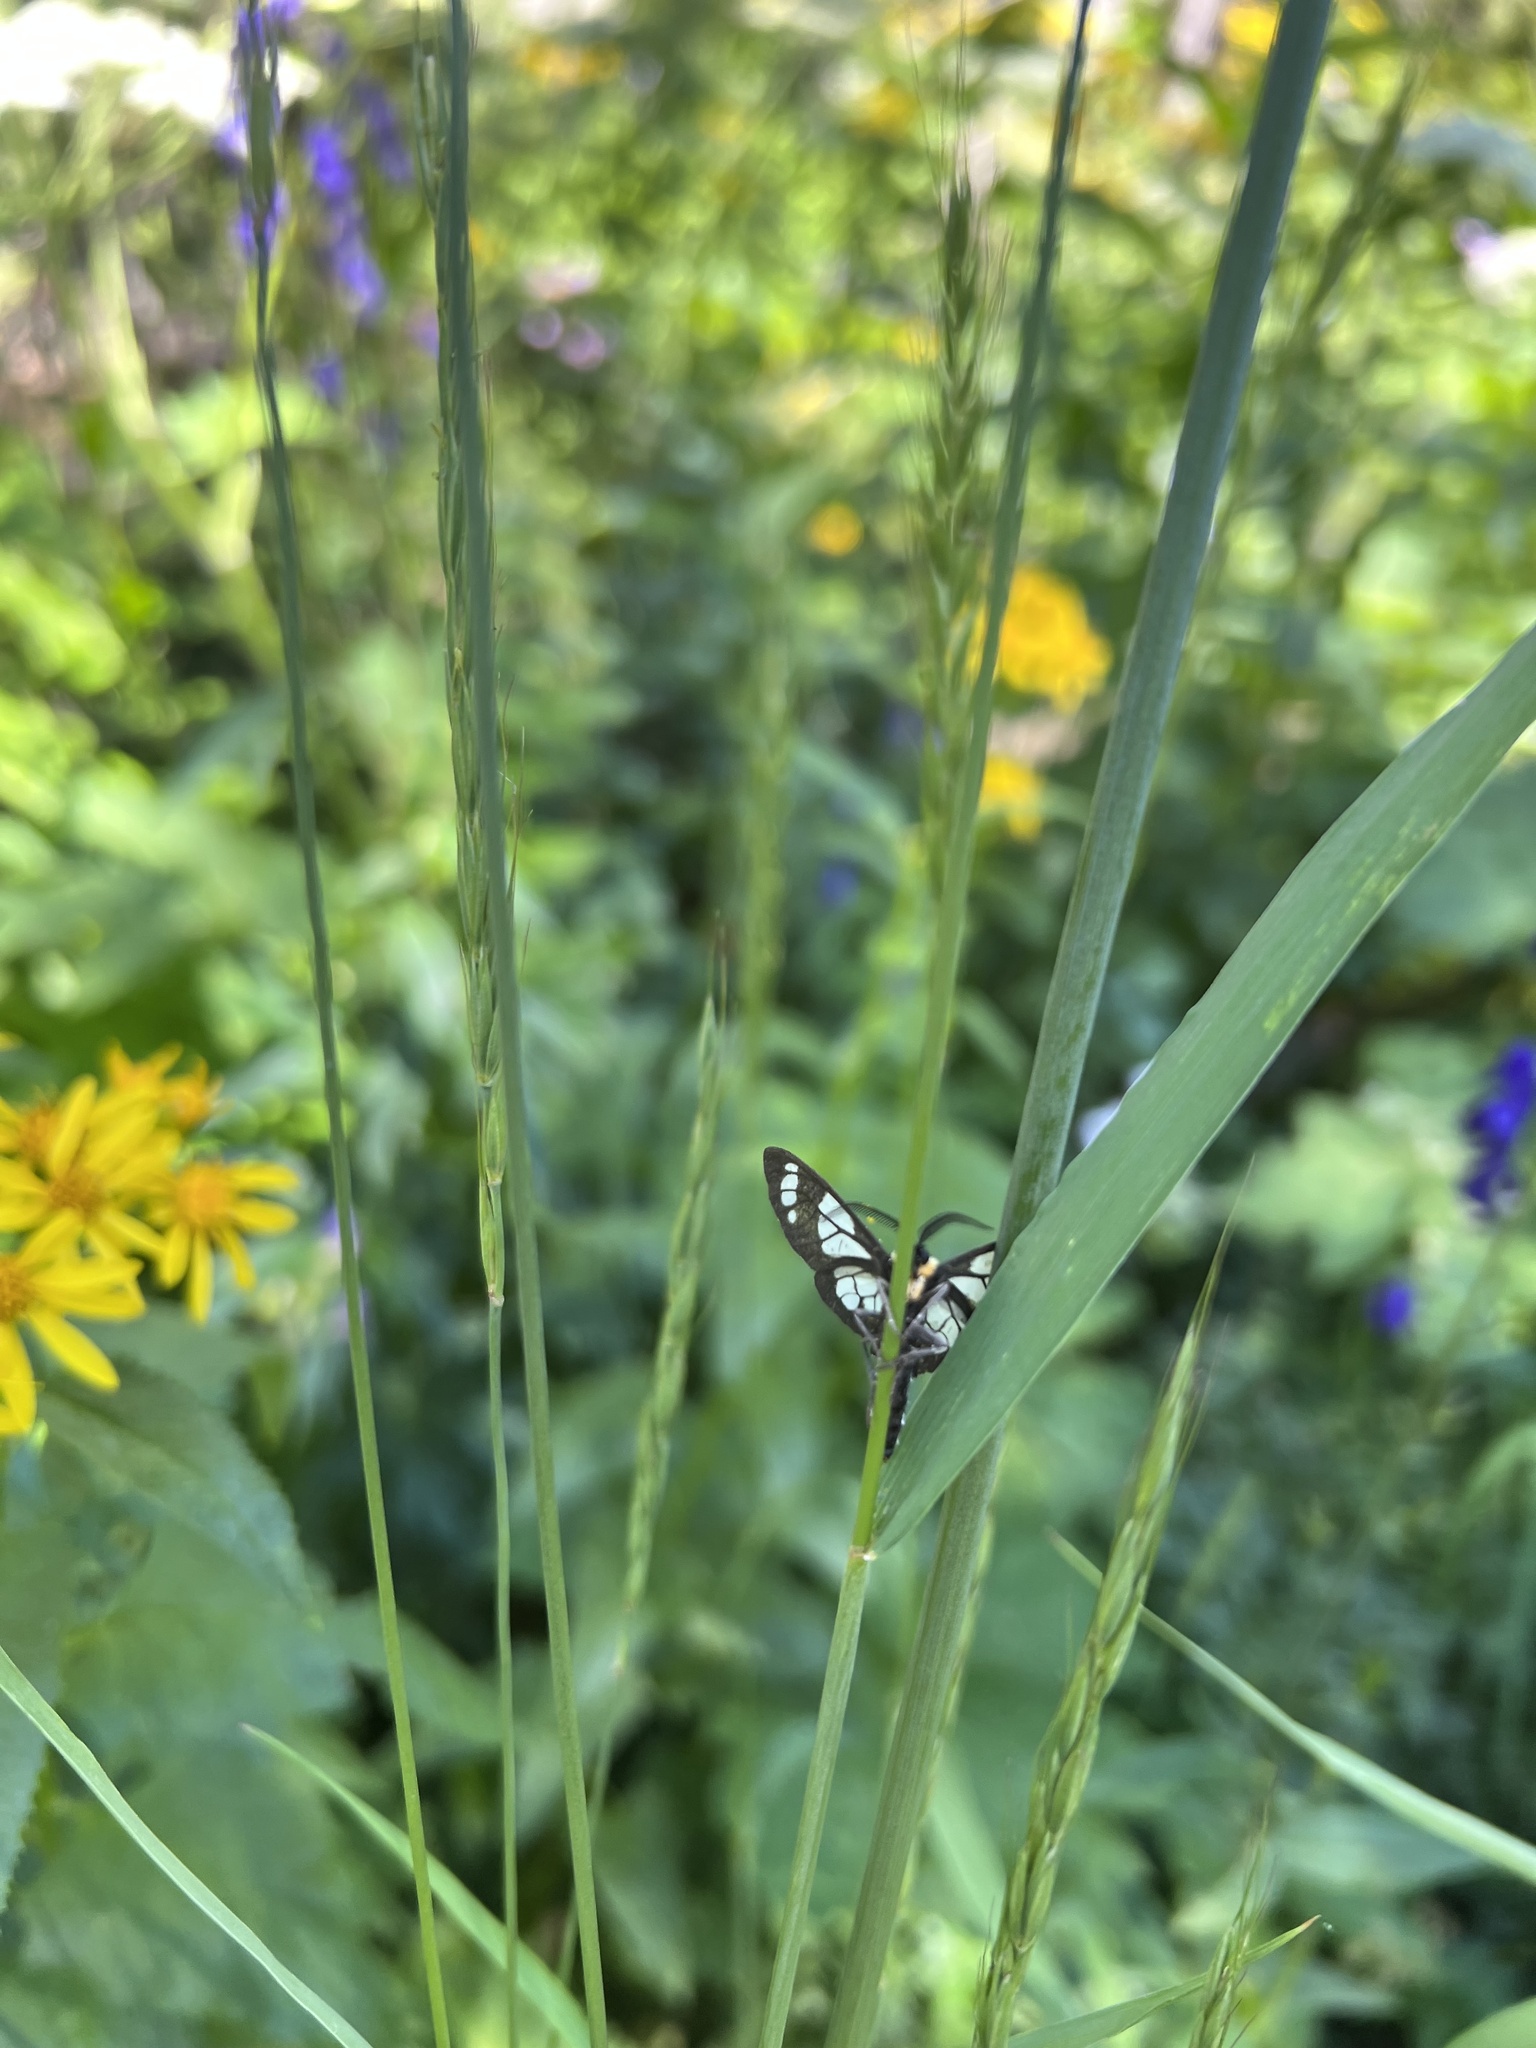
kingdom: Animalia
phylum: Arthropoda
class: Insecta
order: Lepidoptera
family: Erebidae
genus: Gnophaela
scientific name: Gnophaela vermiculata
